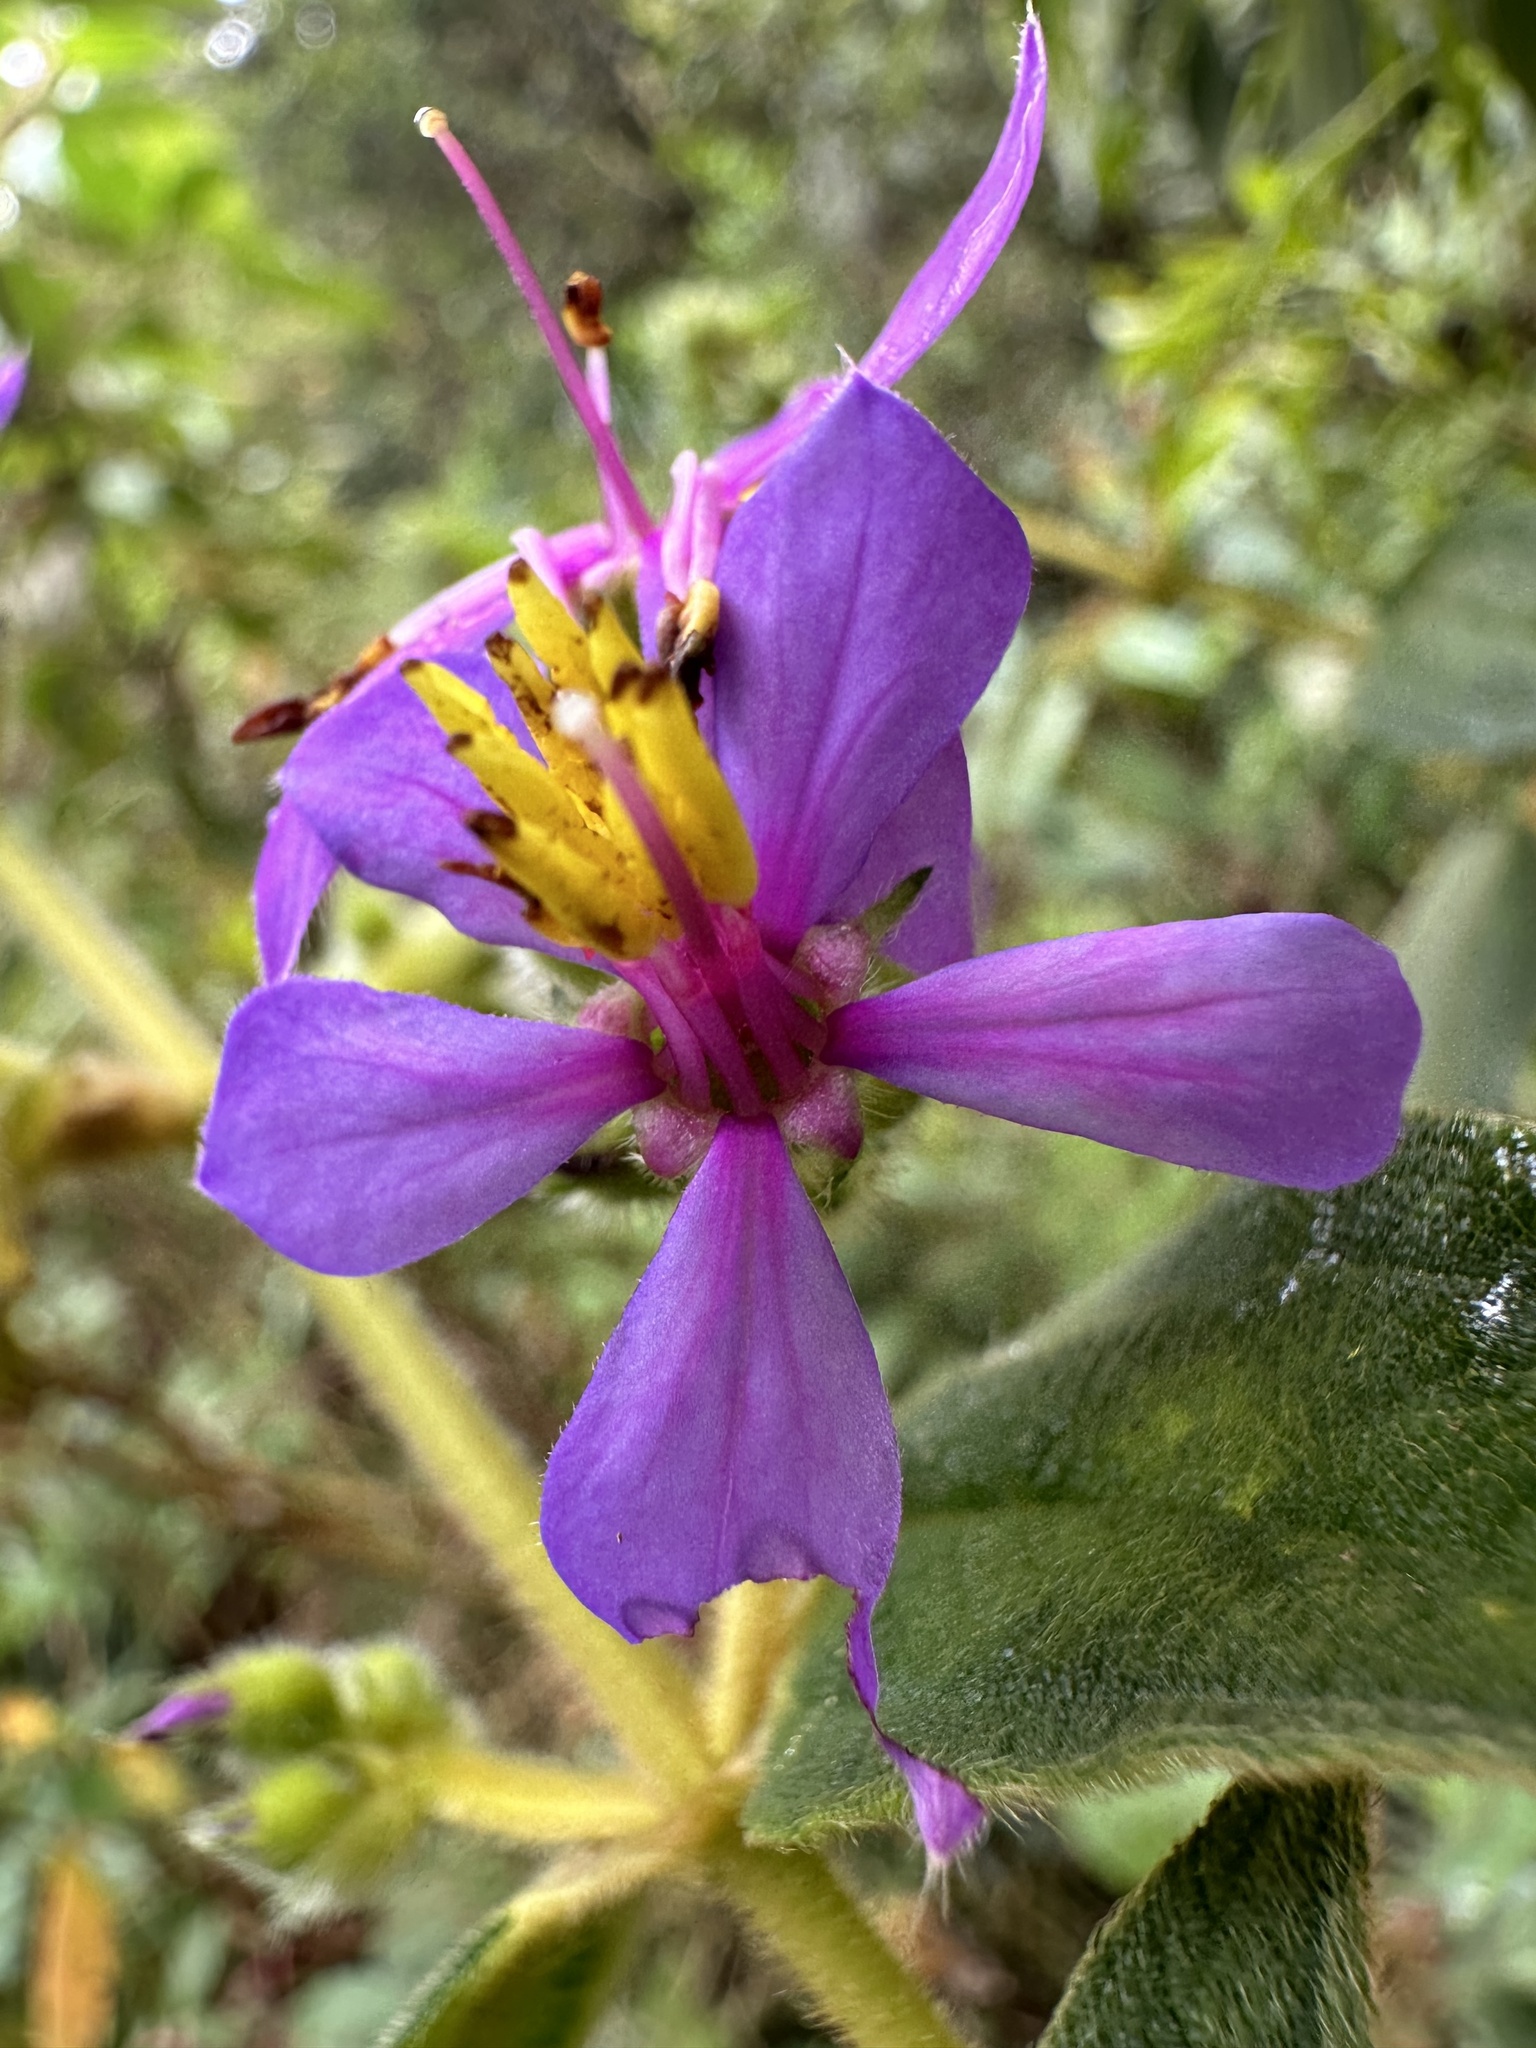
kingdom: Plantae
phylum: Tracheophyta
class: Magnoliopsida
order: Myrtales
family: Melastomataceae
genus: Chaetogastra
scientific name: Chaetogastra mollis
